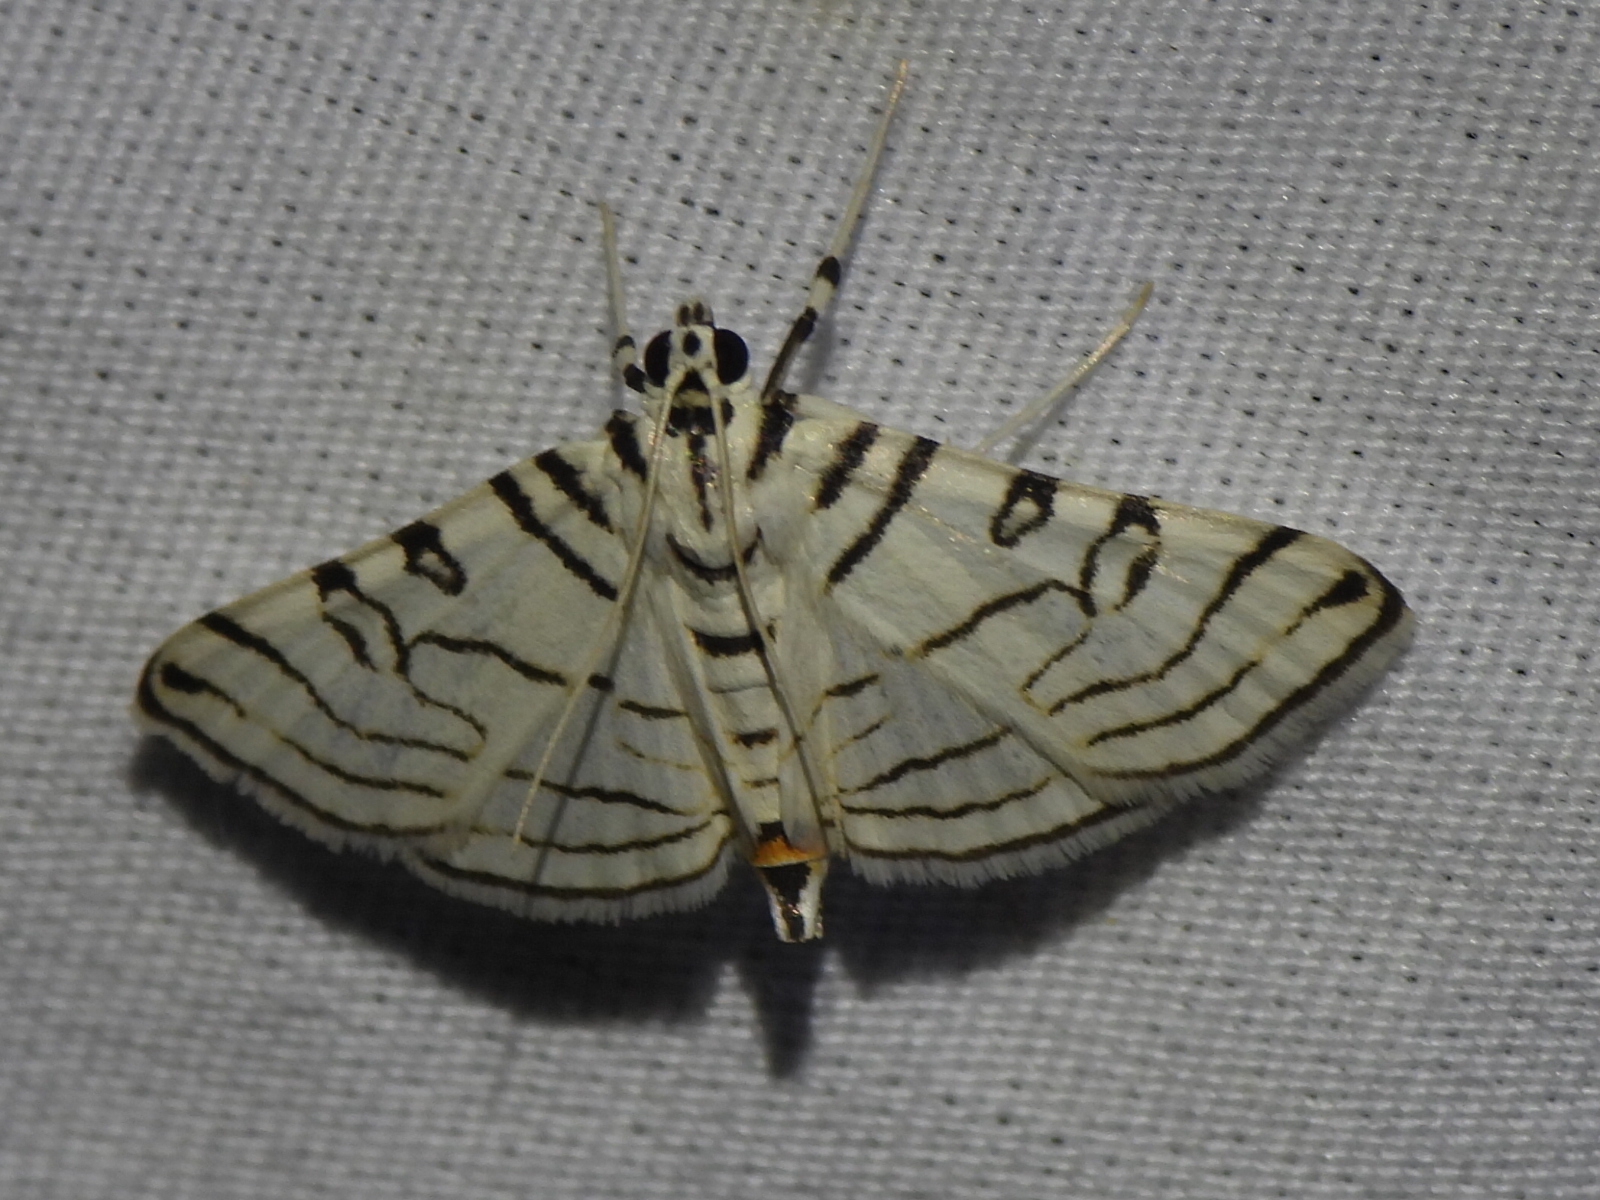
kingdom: Animalia
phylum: Arthropoda
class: Insecta
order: Lepidoptera
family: Crambidae
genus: Conchylodes
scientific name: Conchylodes concinnalis
